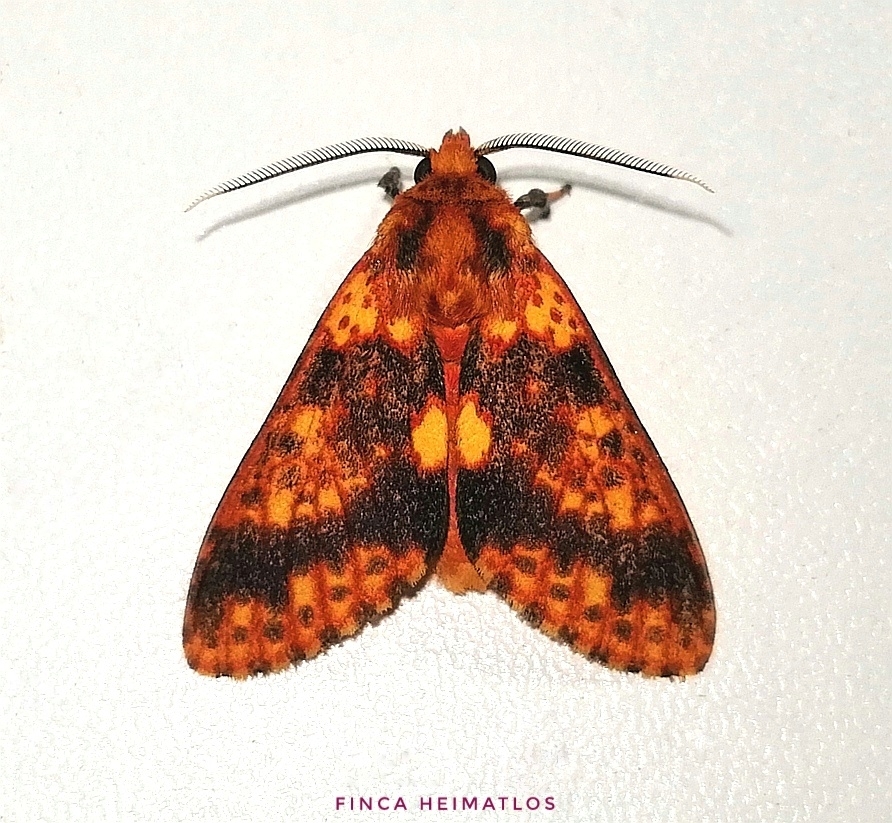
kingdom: Animalia
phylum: Arthropoda
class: Insecta
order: Lepidoptera
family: Erebidae
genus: Symphlebia
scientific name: Symphlebia perflua
